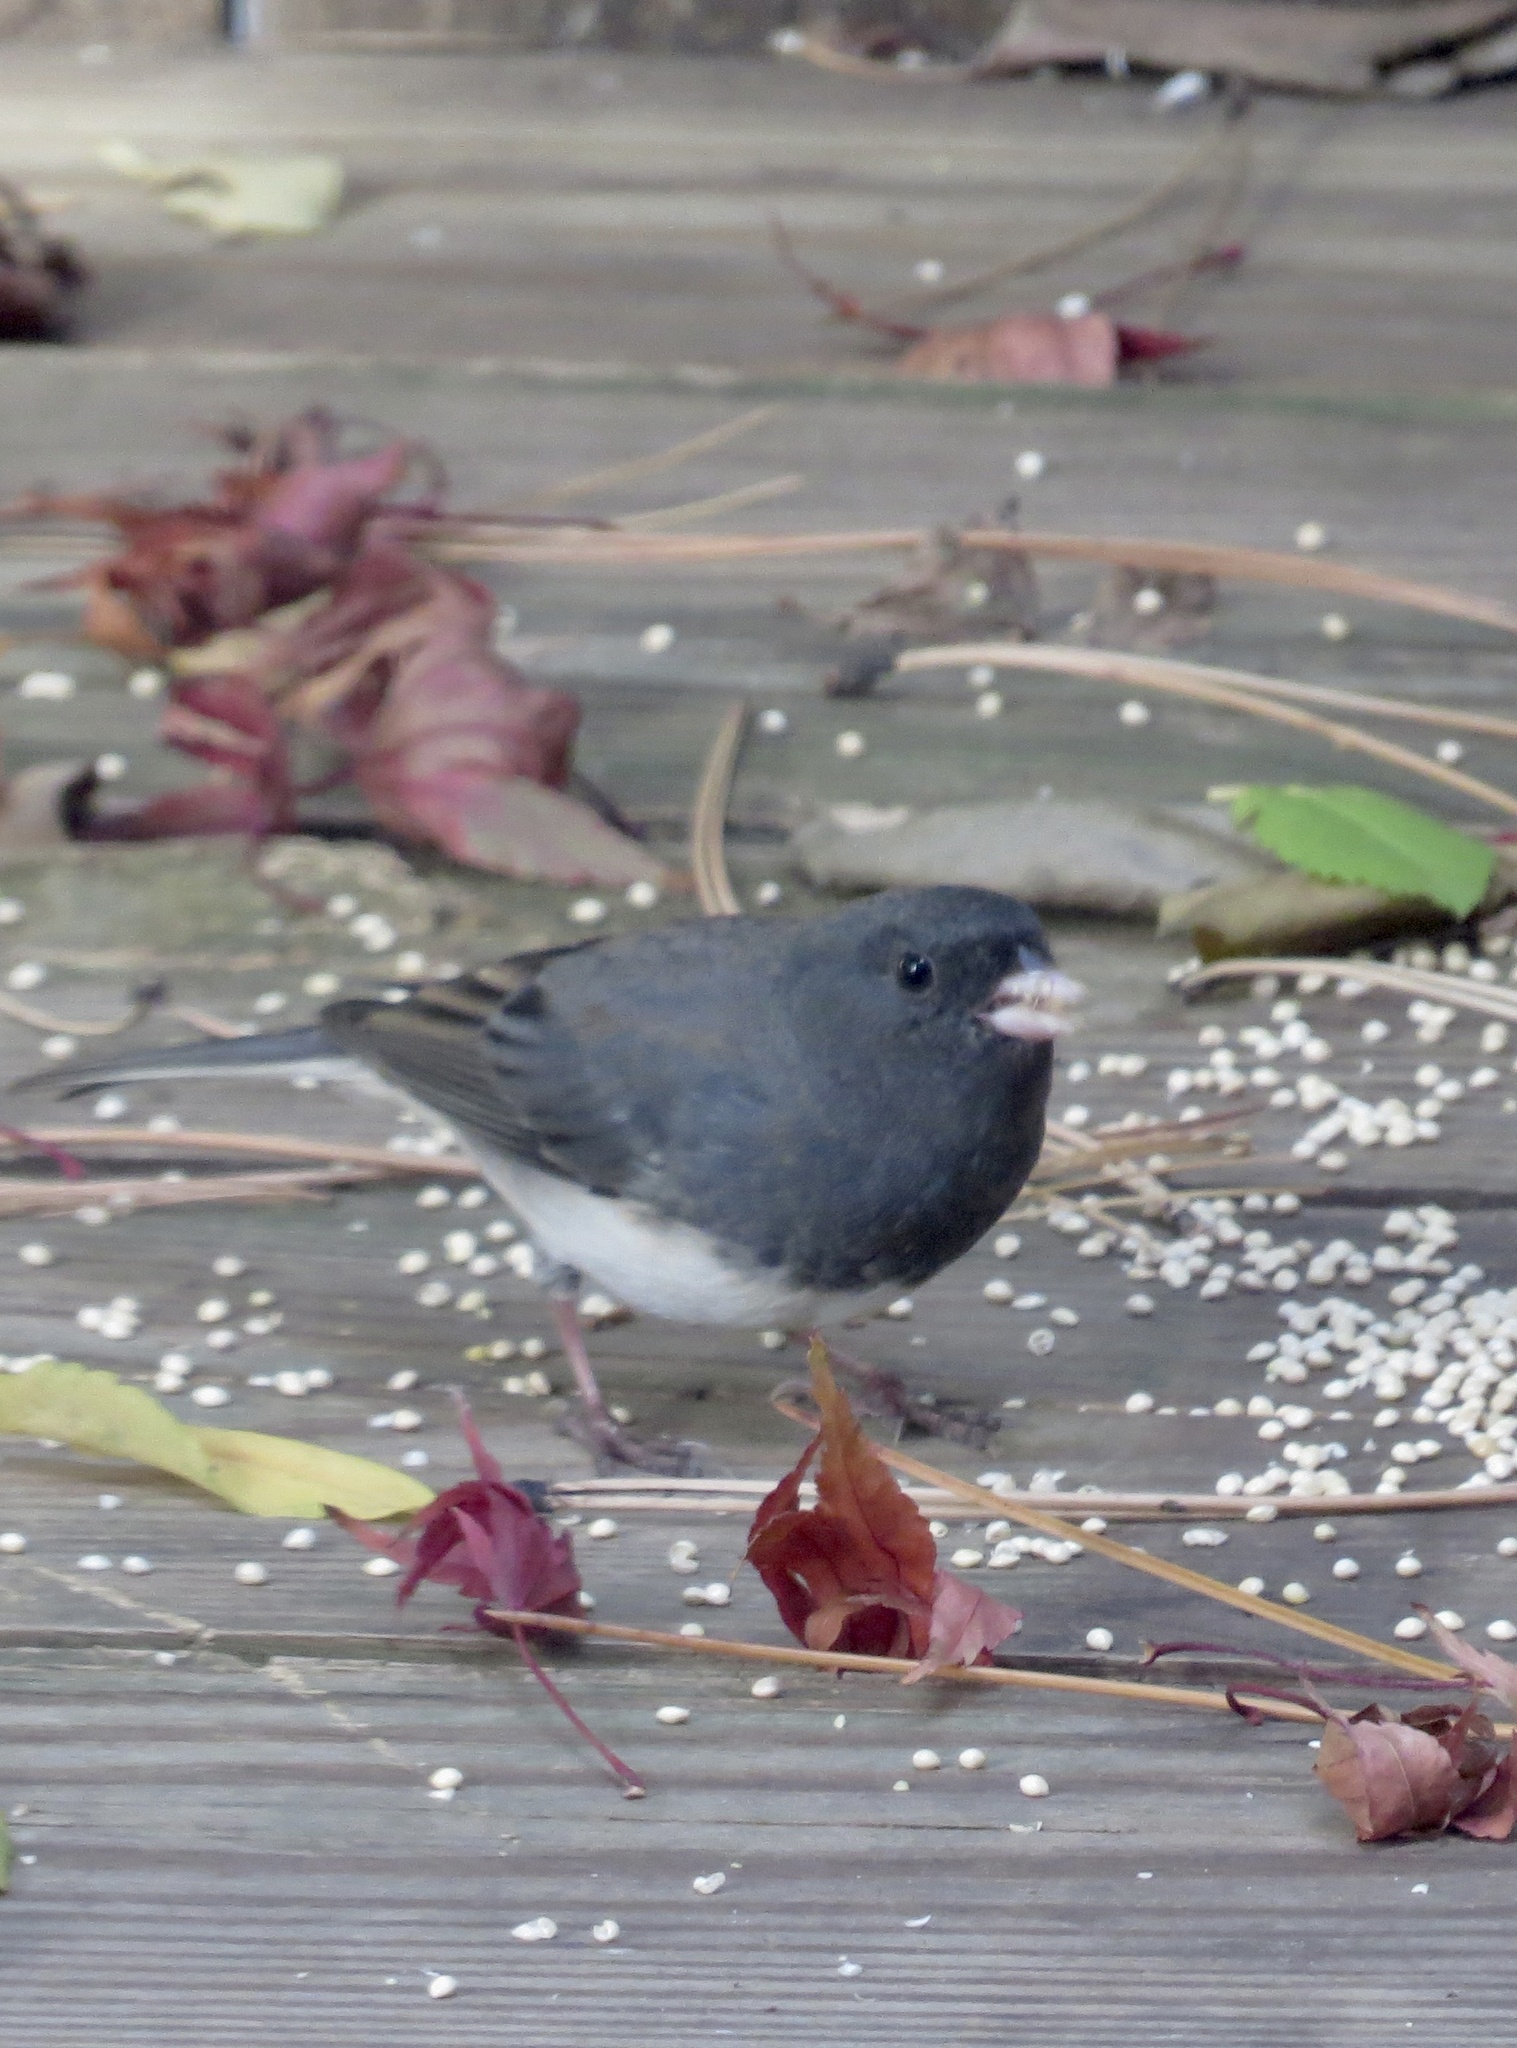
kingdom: Animalia
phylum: Chordata
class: Aves
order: Passeriformes
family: Passerellidae
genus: Junco
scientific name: Junco hyemalis
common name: Dark-eyed junco
